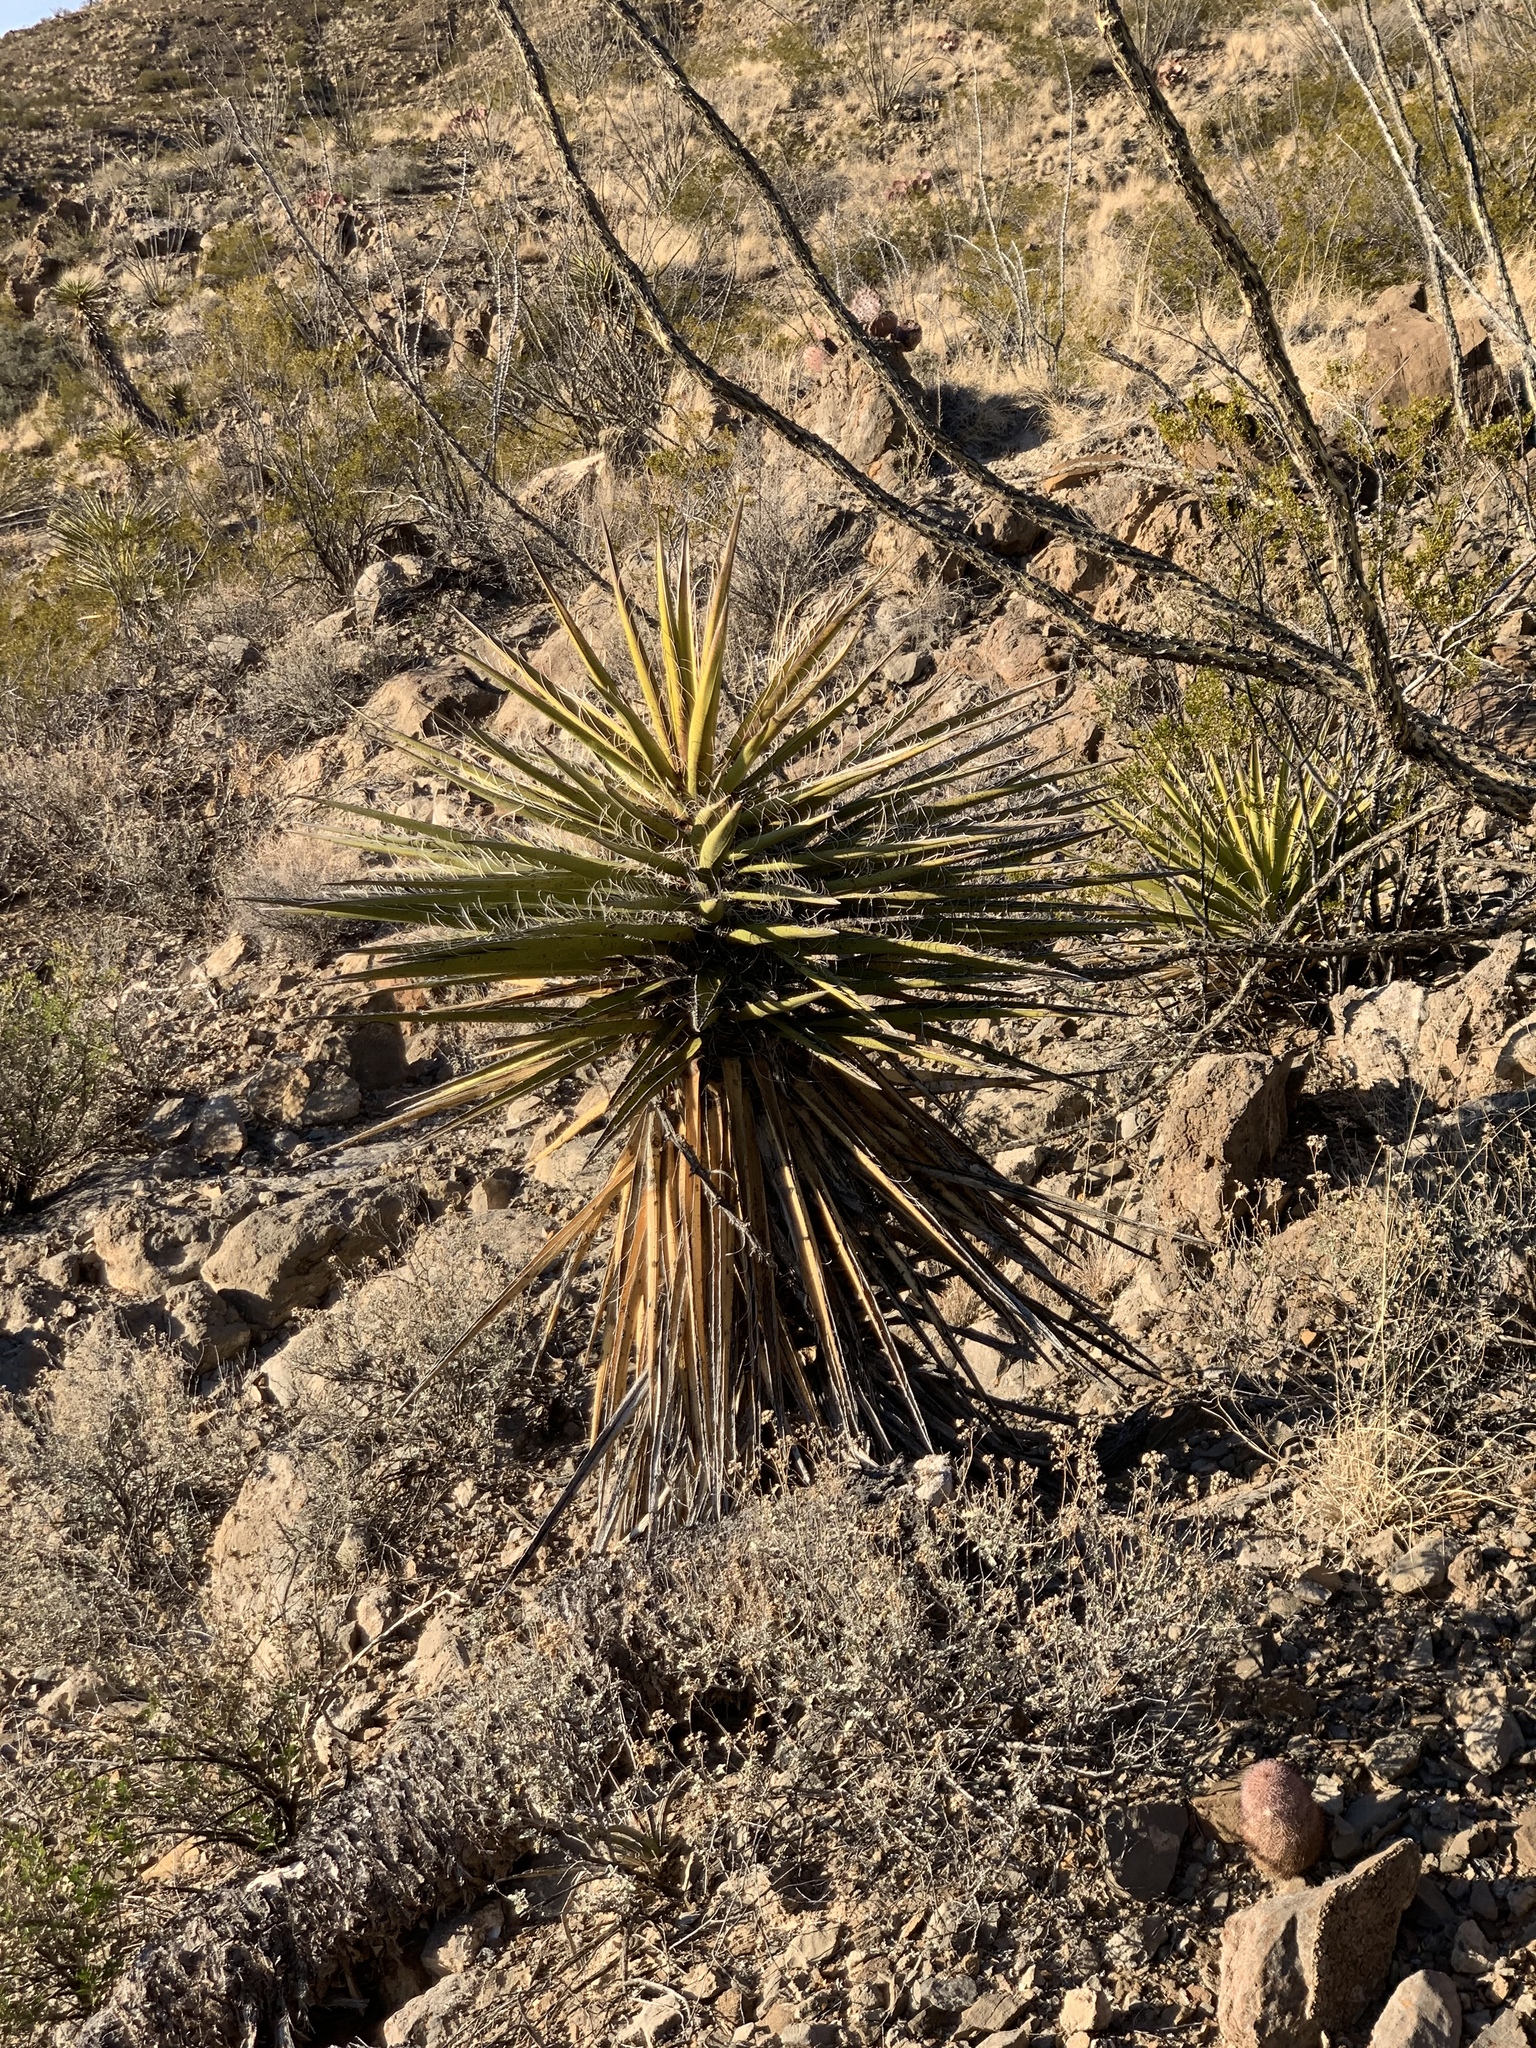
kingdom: Plantae
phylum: Tracheophyta
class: Liliopsida
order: Asparagales
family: Asparagaceae
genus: Yucca
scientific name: Yucca treculiana
